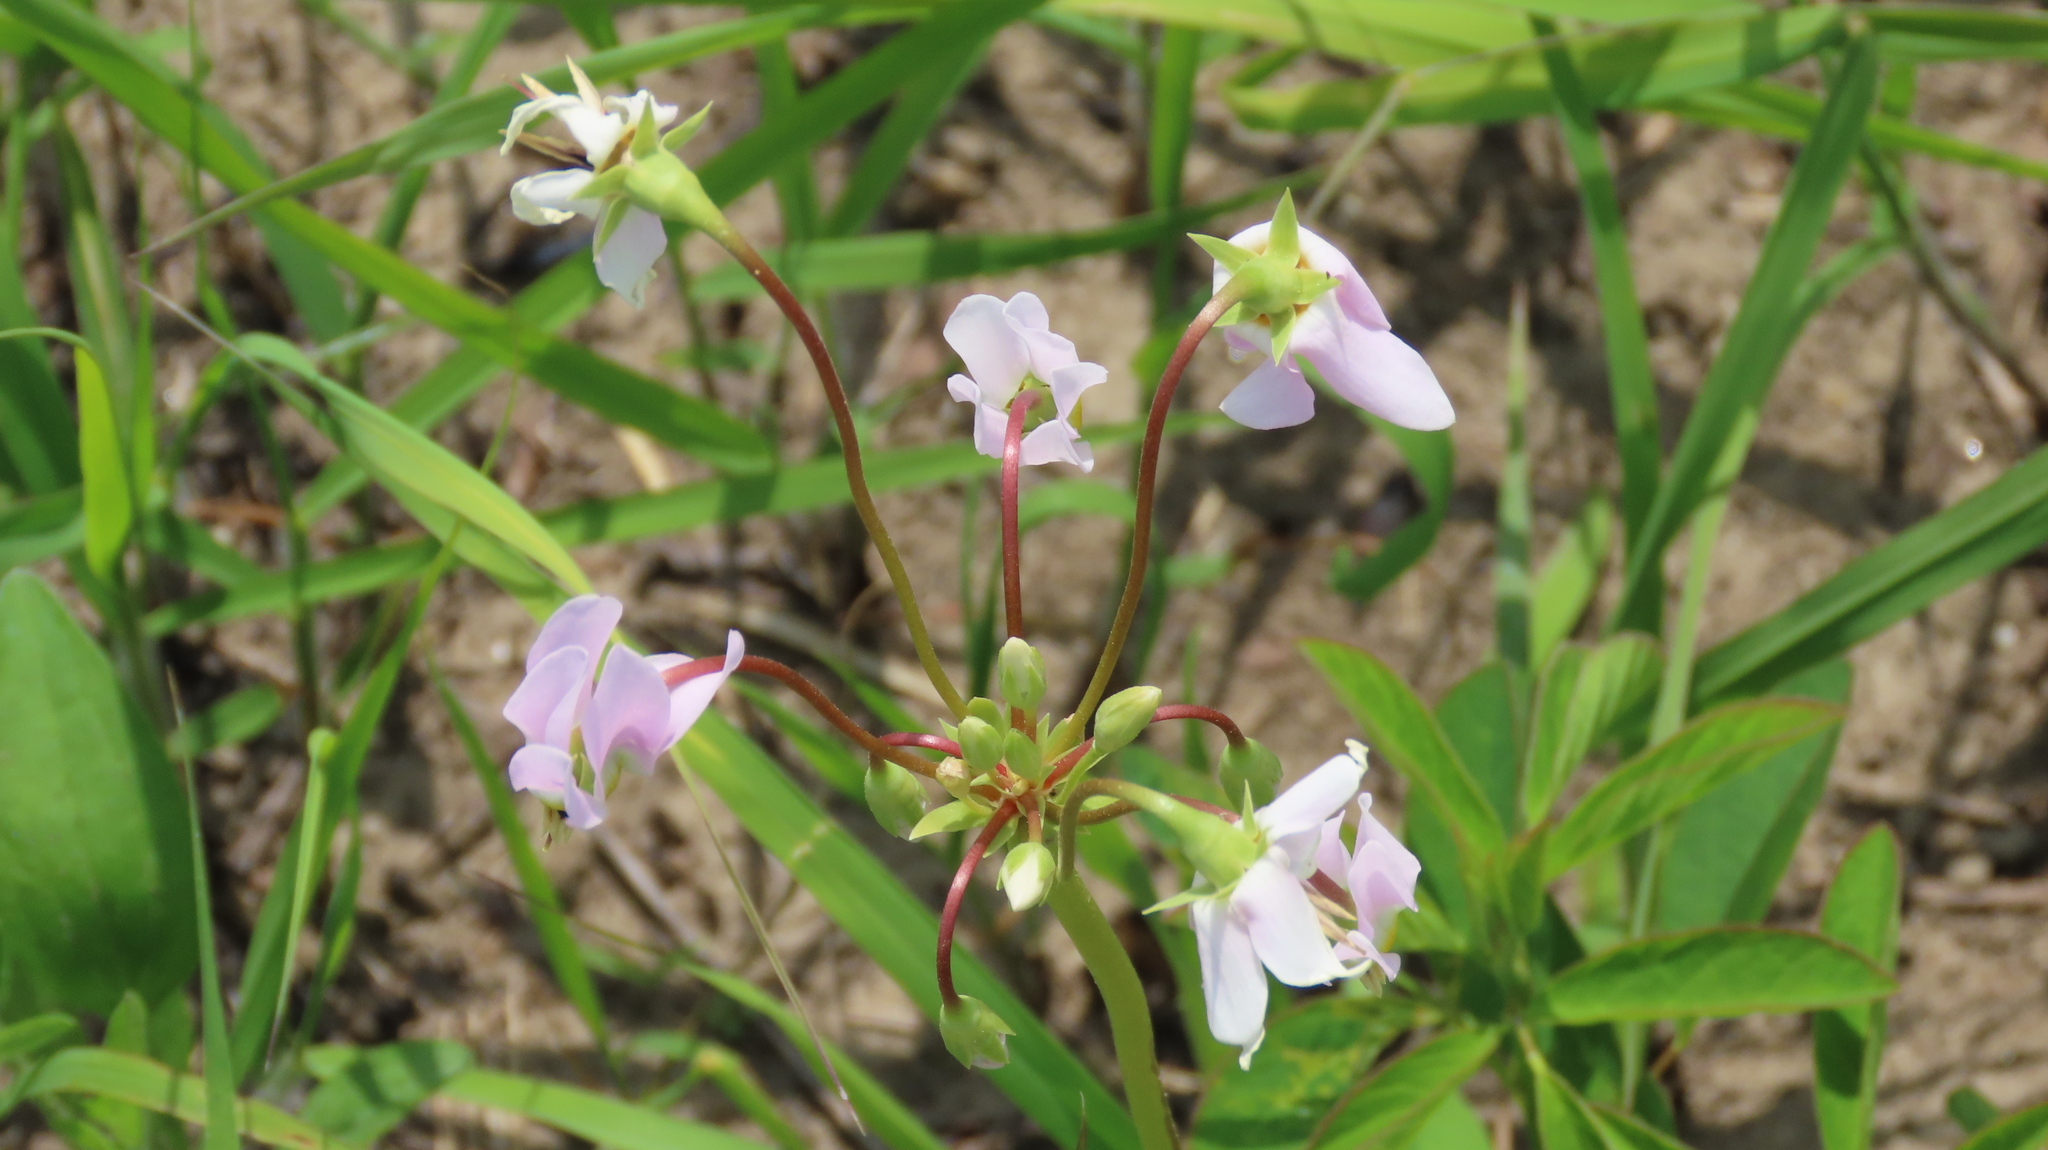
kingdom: Plantae
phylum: Tracheophyta
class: Magnoliopsida
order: Ericales
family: Primulaceae
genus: Dodecatheon
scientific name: Dodecatheon meadia
